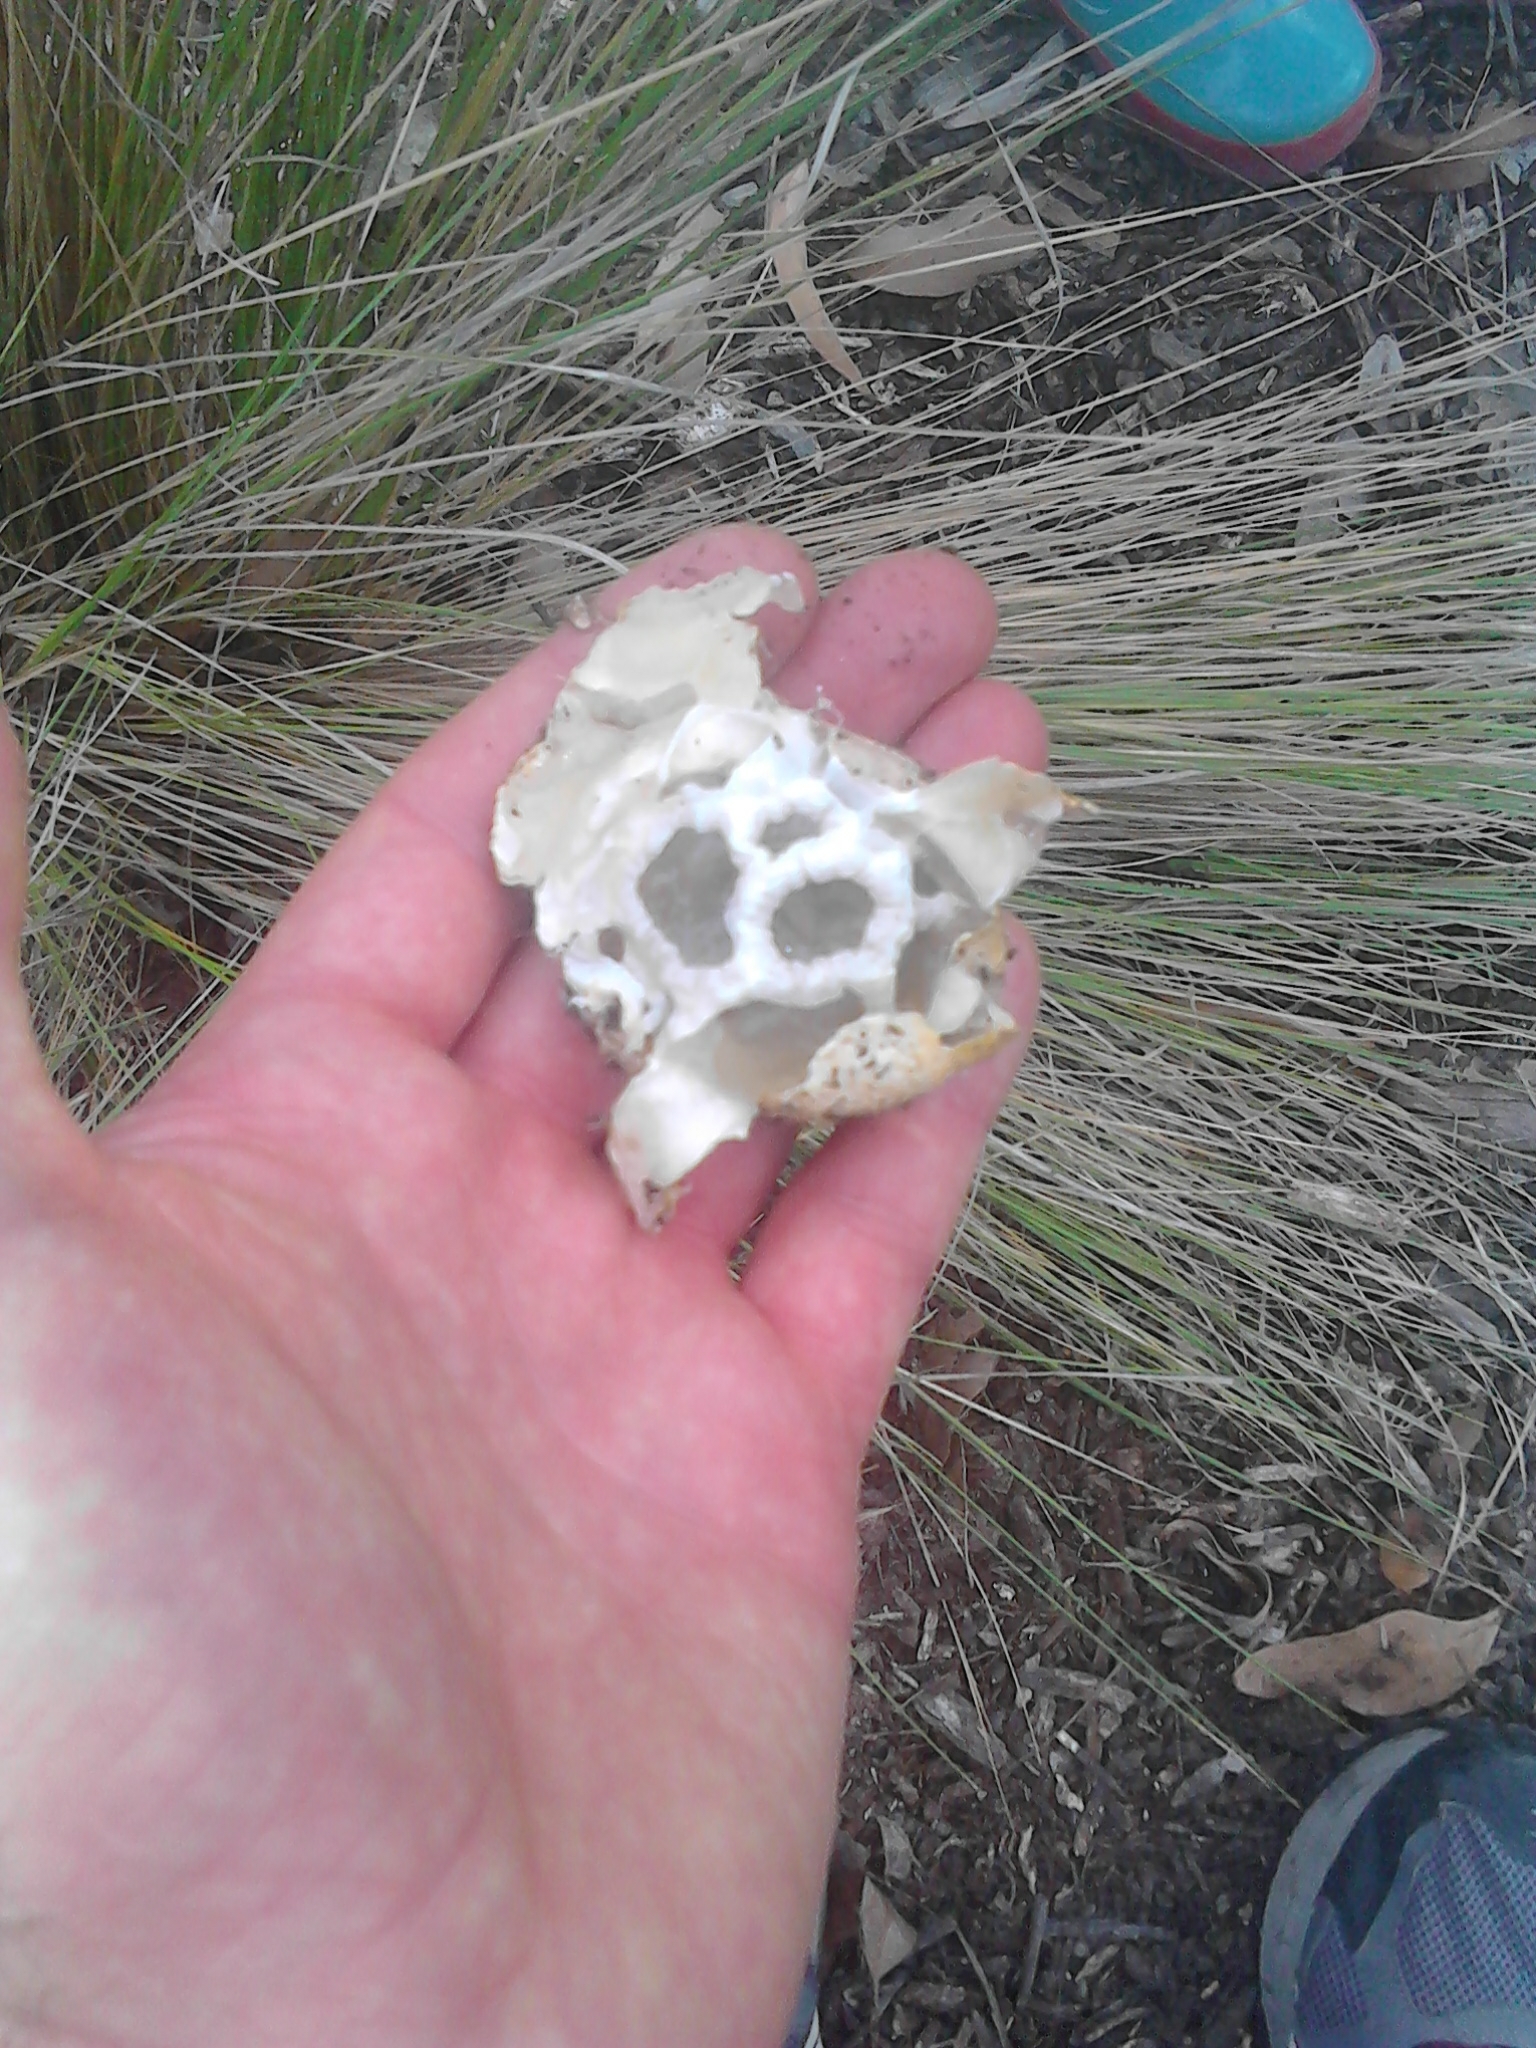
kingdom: Fungi
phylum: Basidiomycota
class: Agaricomycetes
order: Phallales
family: Phallaceae
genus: Ileodictyon
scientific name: Ileodictyon cibarium
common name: Basket fungus
